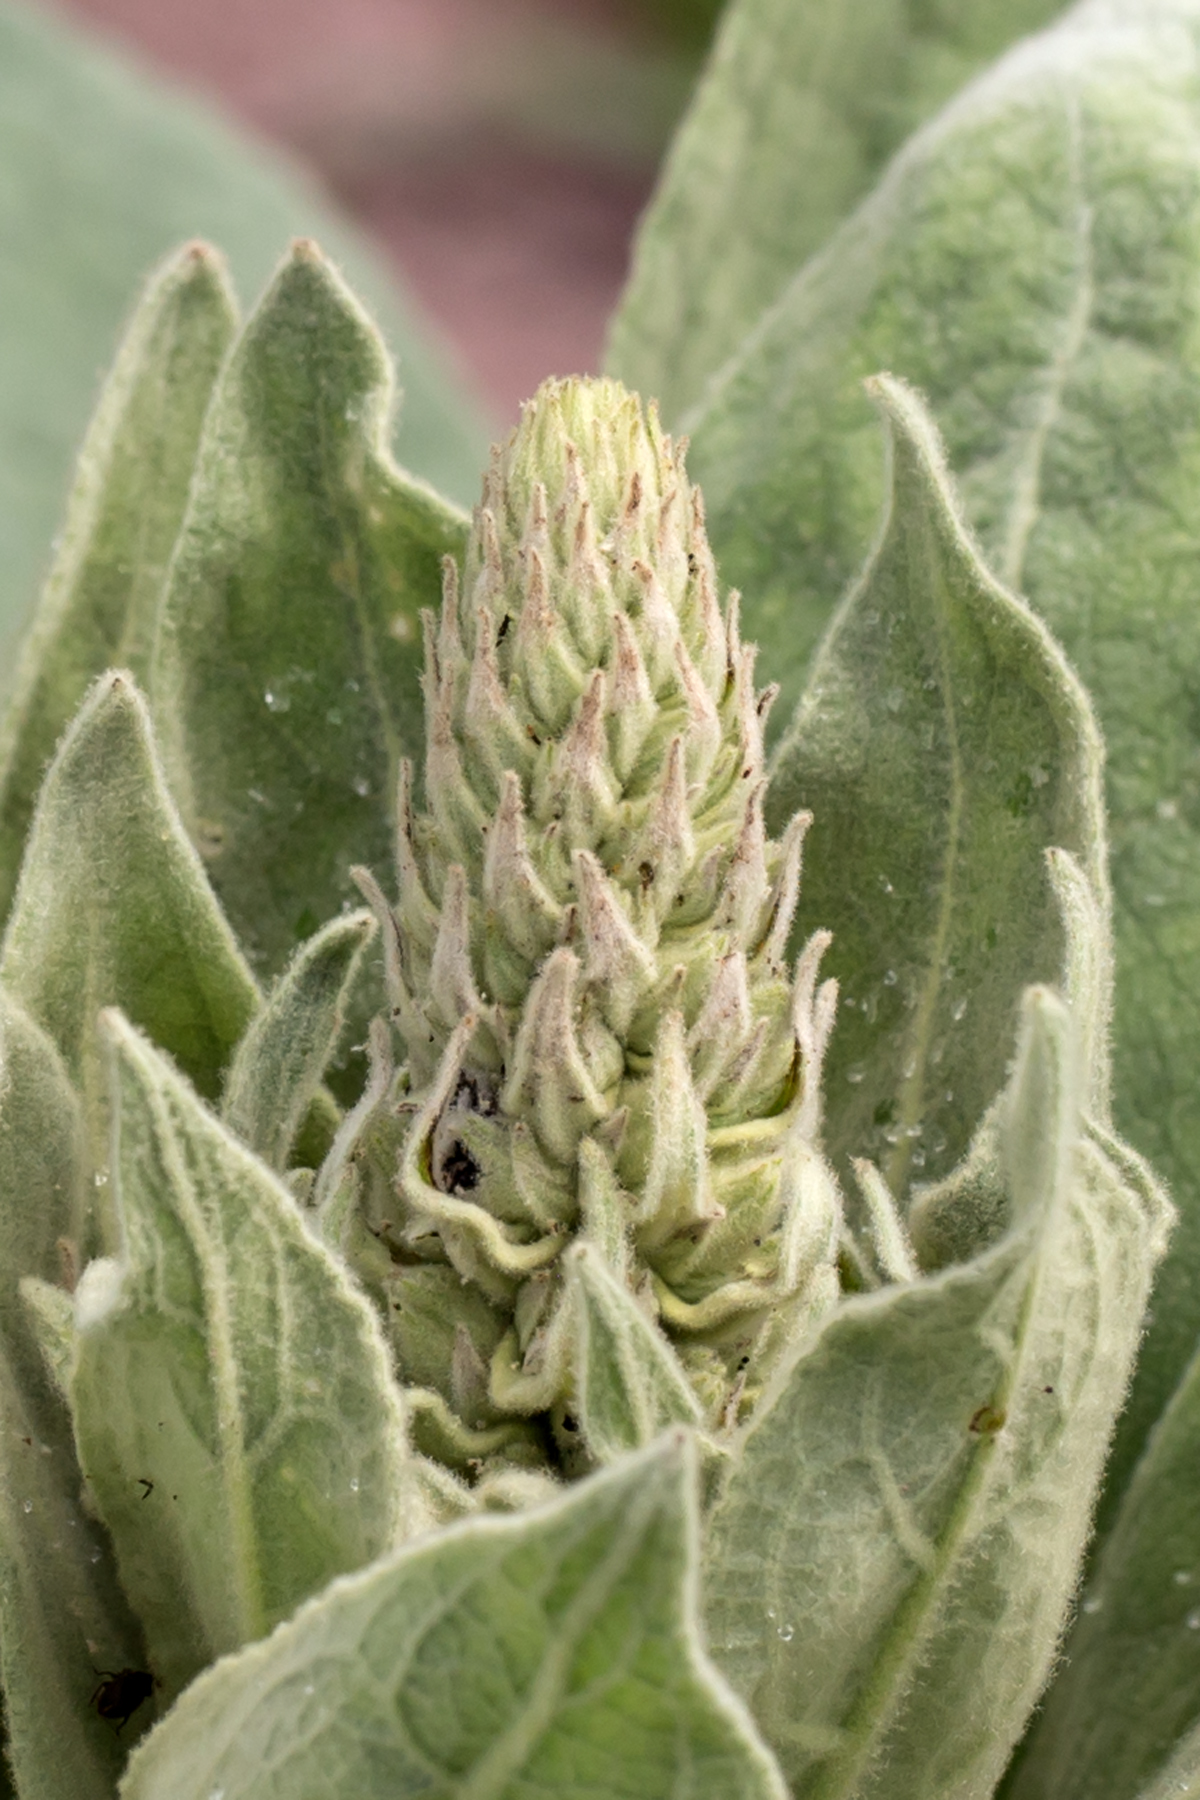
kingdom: Plantae
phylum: Tracheophyta
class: Magnoliopsida
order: Lamiales
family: Scrophulariaceae
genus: Verbascum
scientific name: Verbascum thapsus
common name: Common mullein
